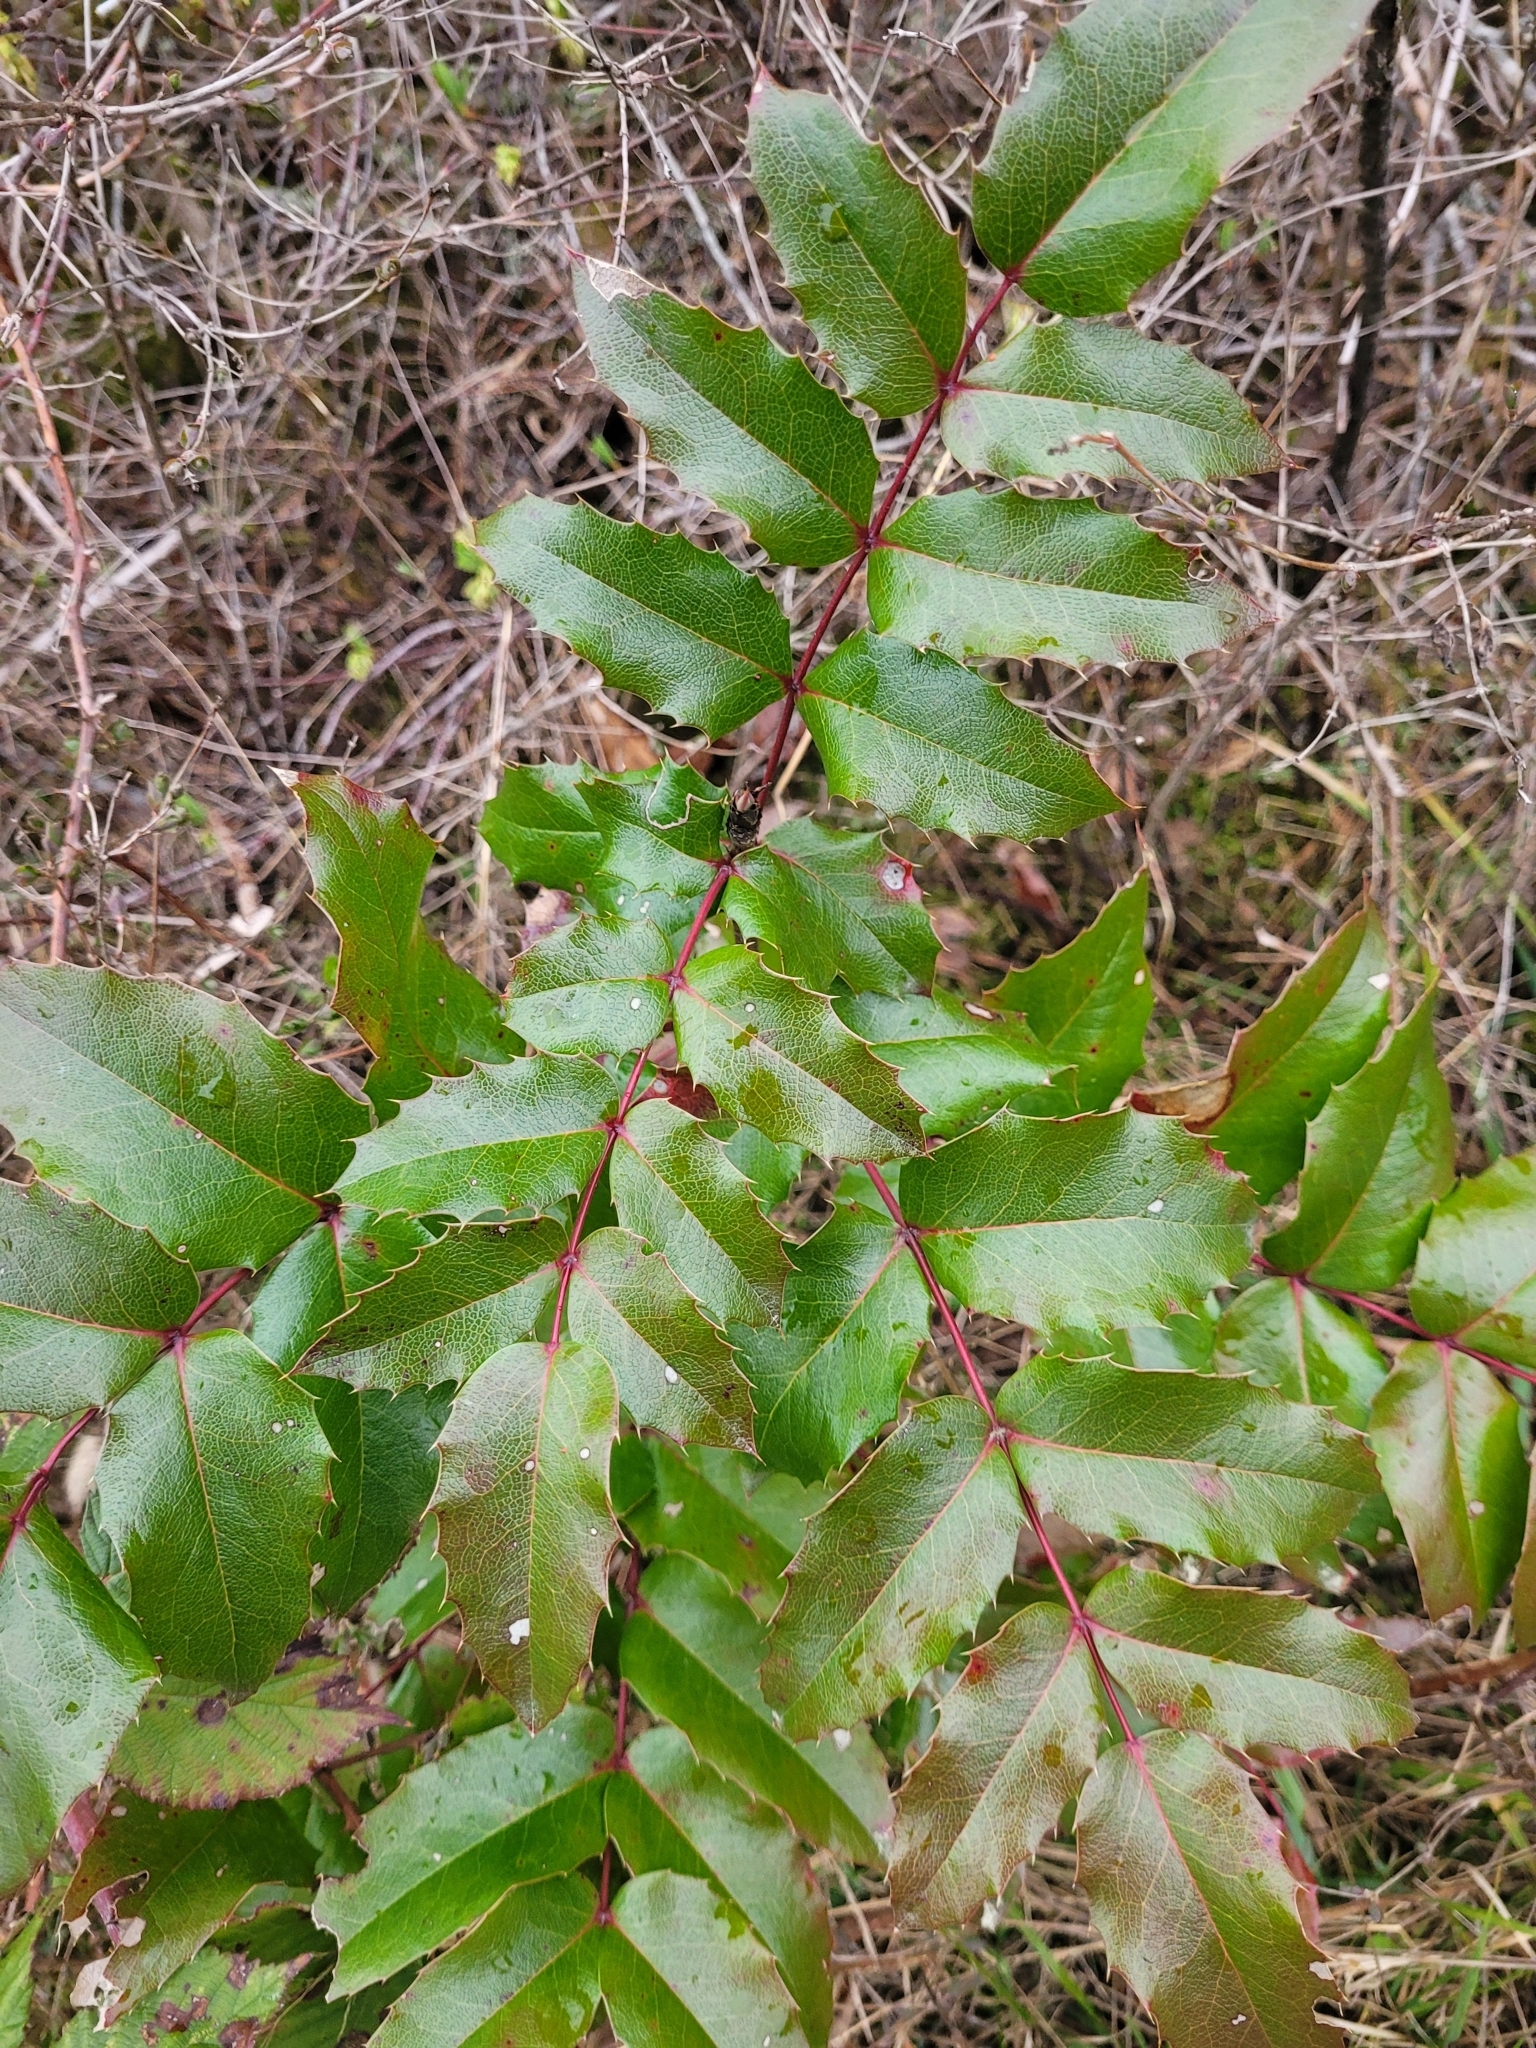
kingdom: Plantae
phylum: Tracheophyta
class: Magnoliopsida
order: Ranunculales
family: Berberidaceae
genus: Mahonia
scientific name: Mahonia aquifolium
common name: Oregon-grape
